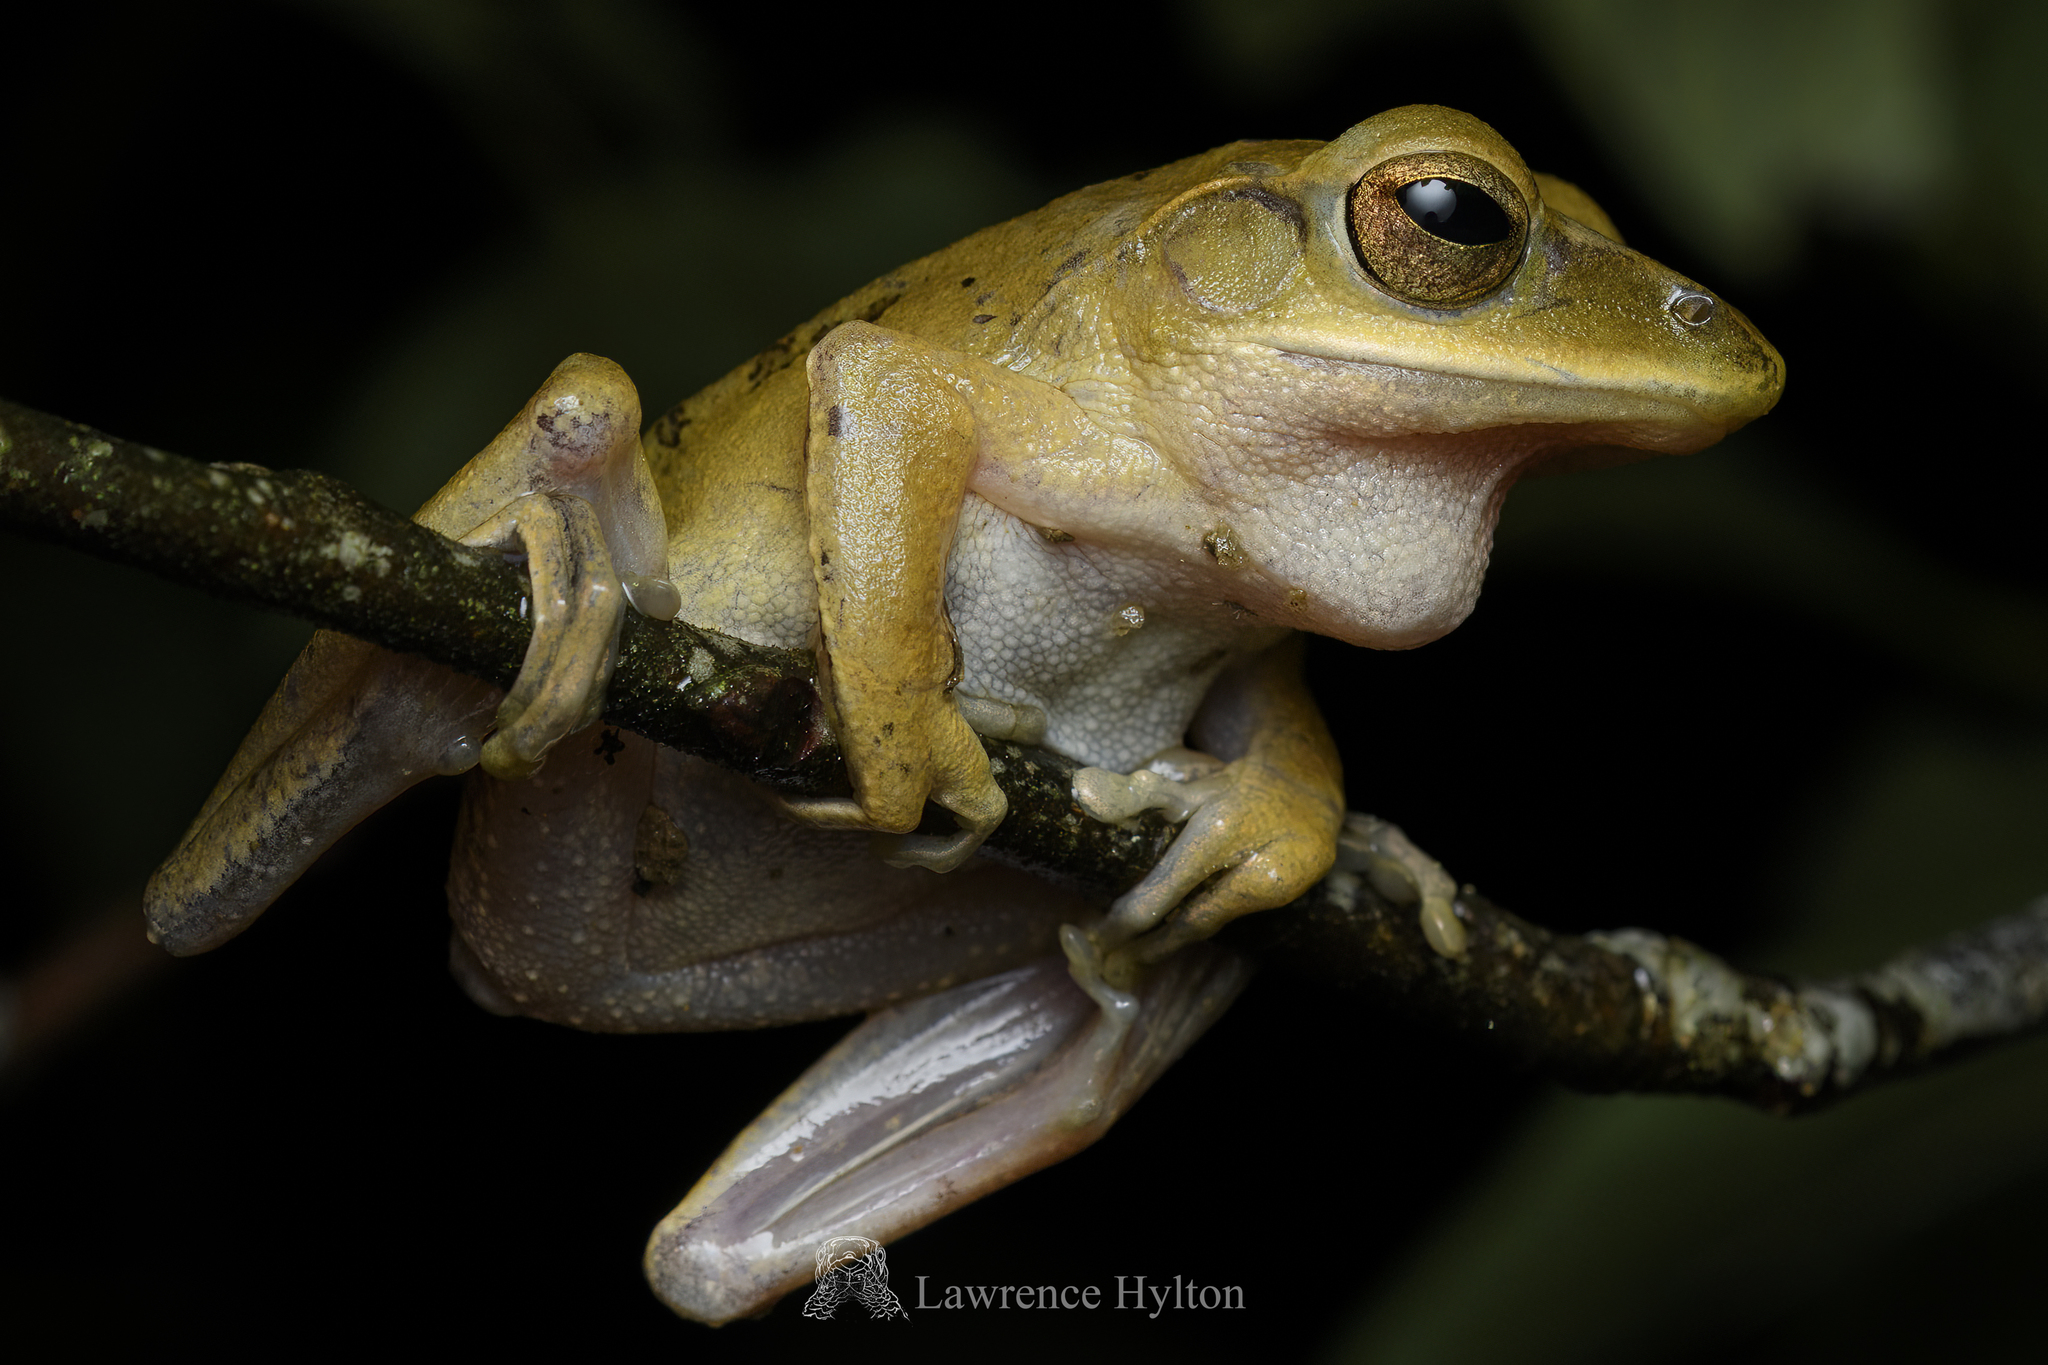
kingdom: Animalia
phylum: Chordata
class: Amphibia
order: Anura
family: Rhacophoridae
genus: Polypedates
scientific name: Polypedates megacephalus
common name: Hong kong whipping frog
